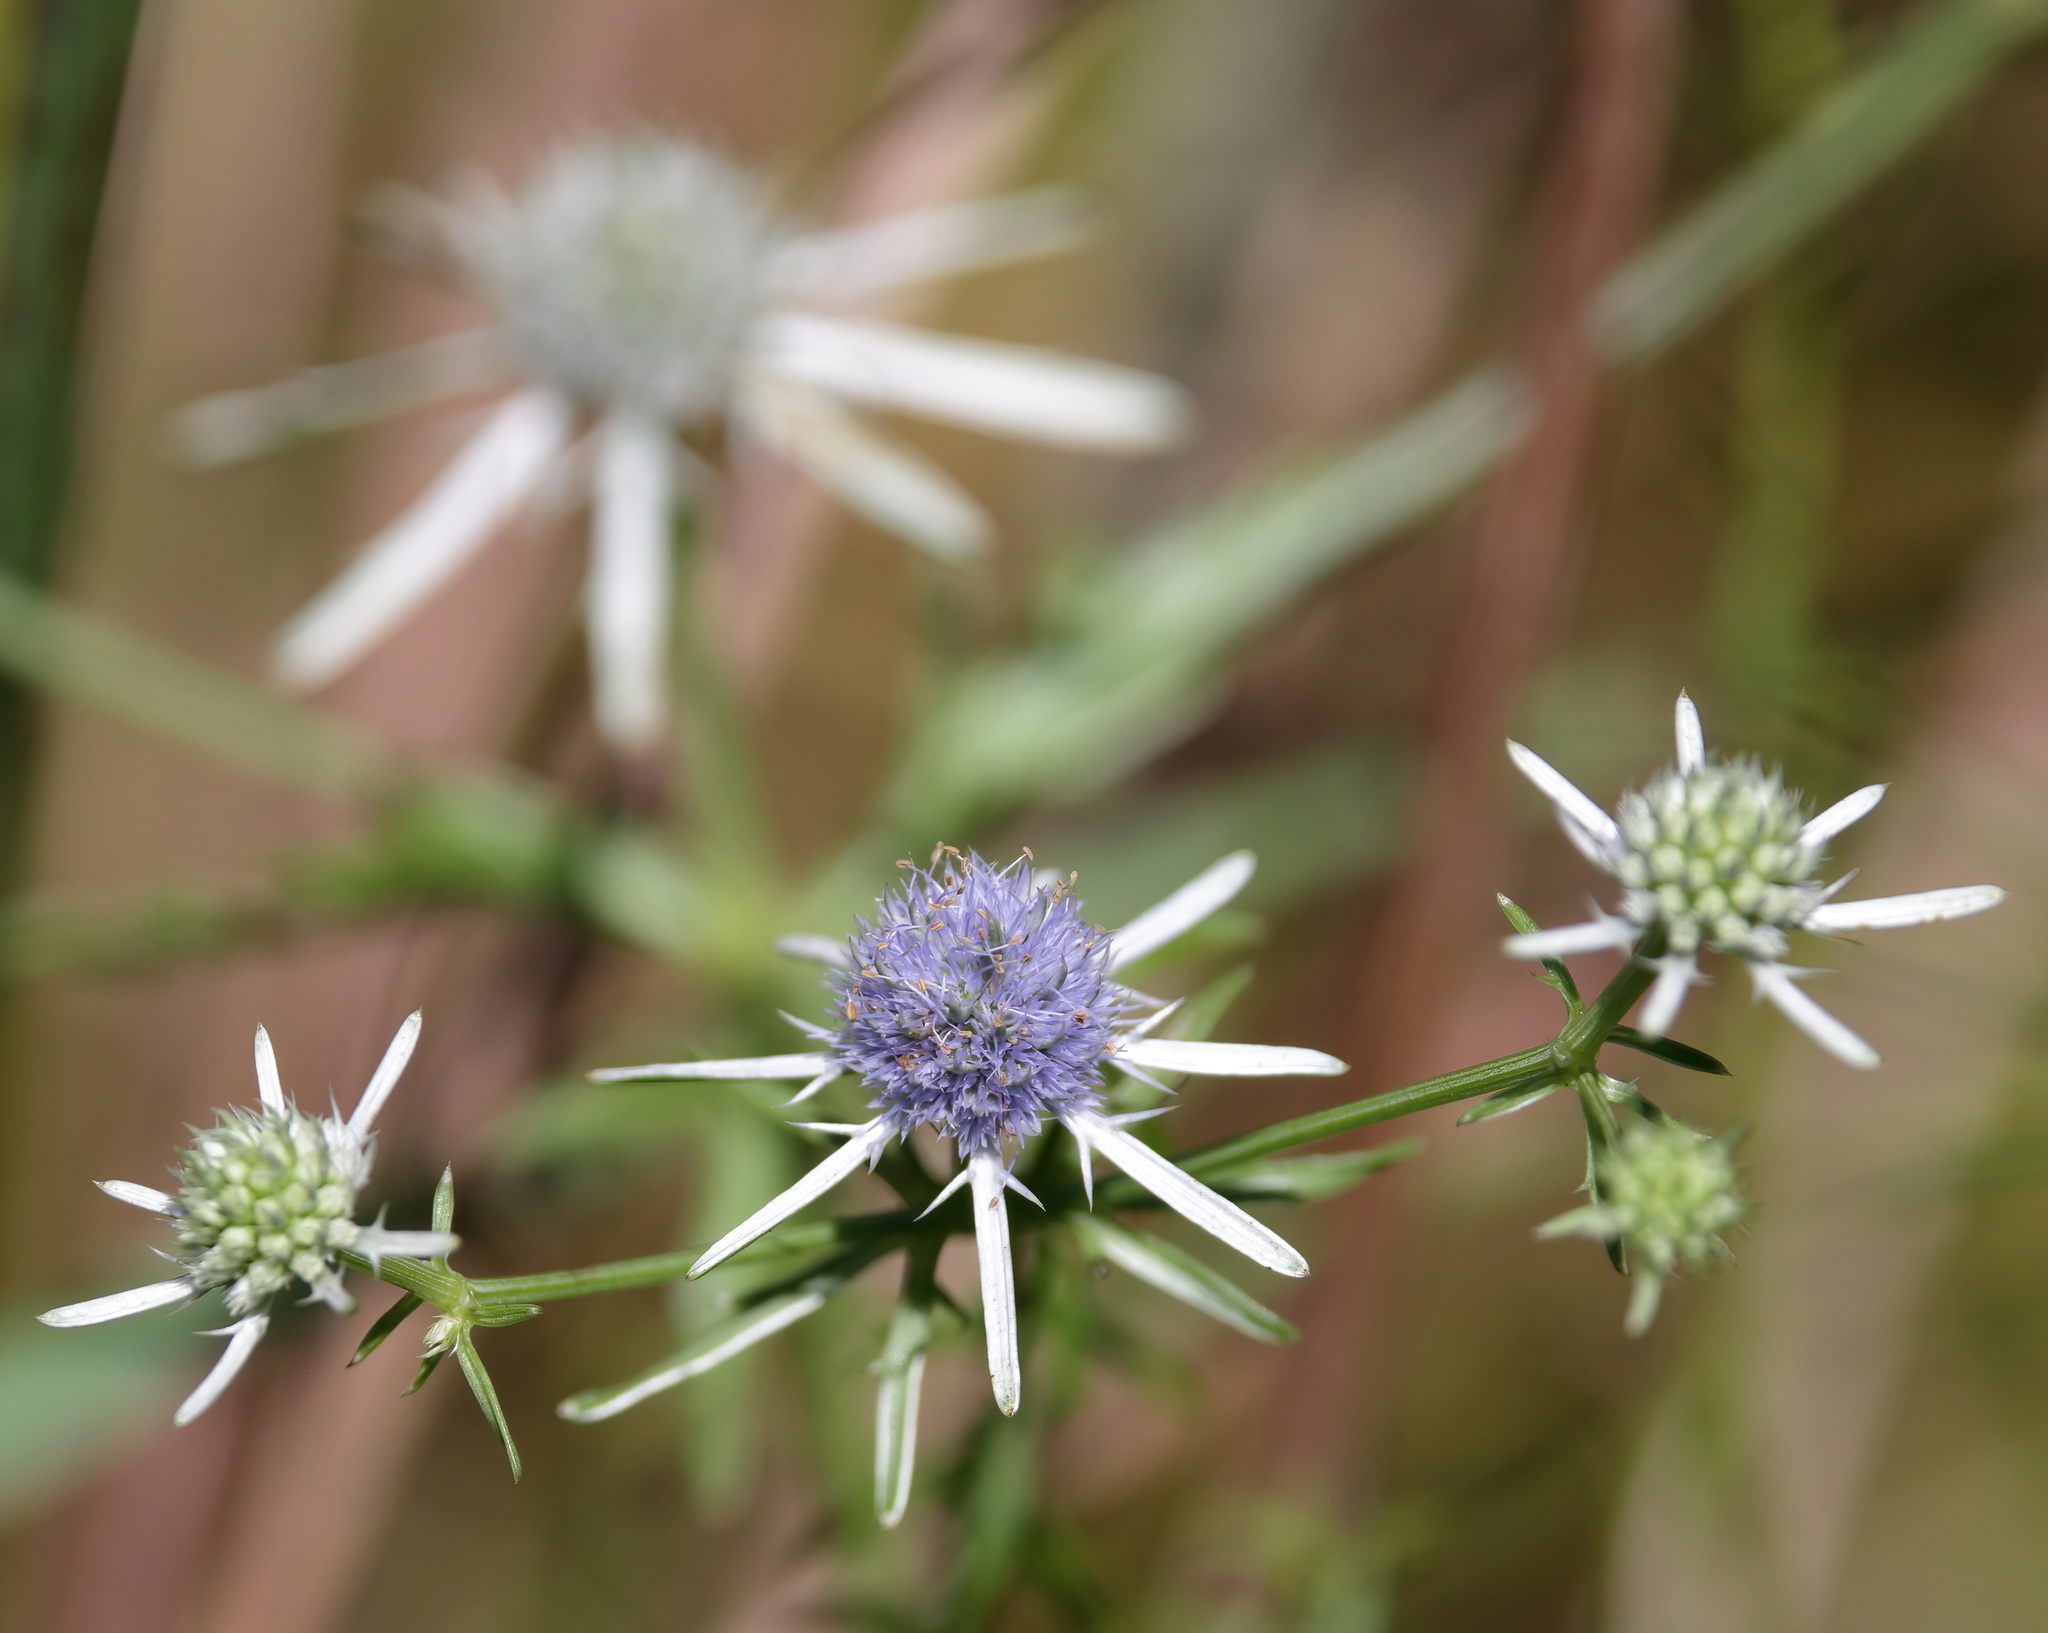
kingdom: Plantae
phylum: Tracheophyta
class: Magnoliopsida
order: Apiales
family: Apiaceae
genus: Eryngium
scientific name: Eryngium integrifolium
